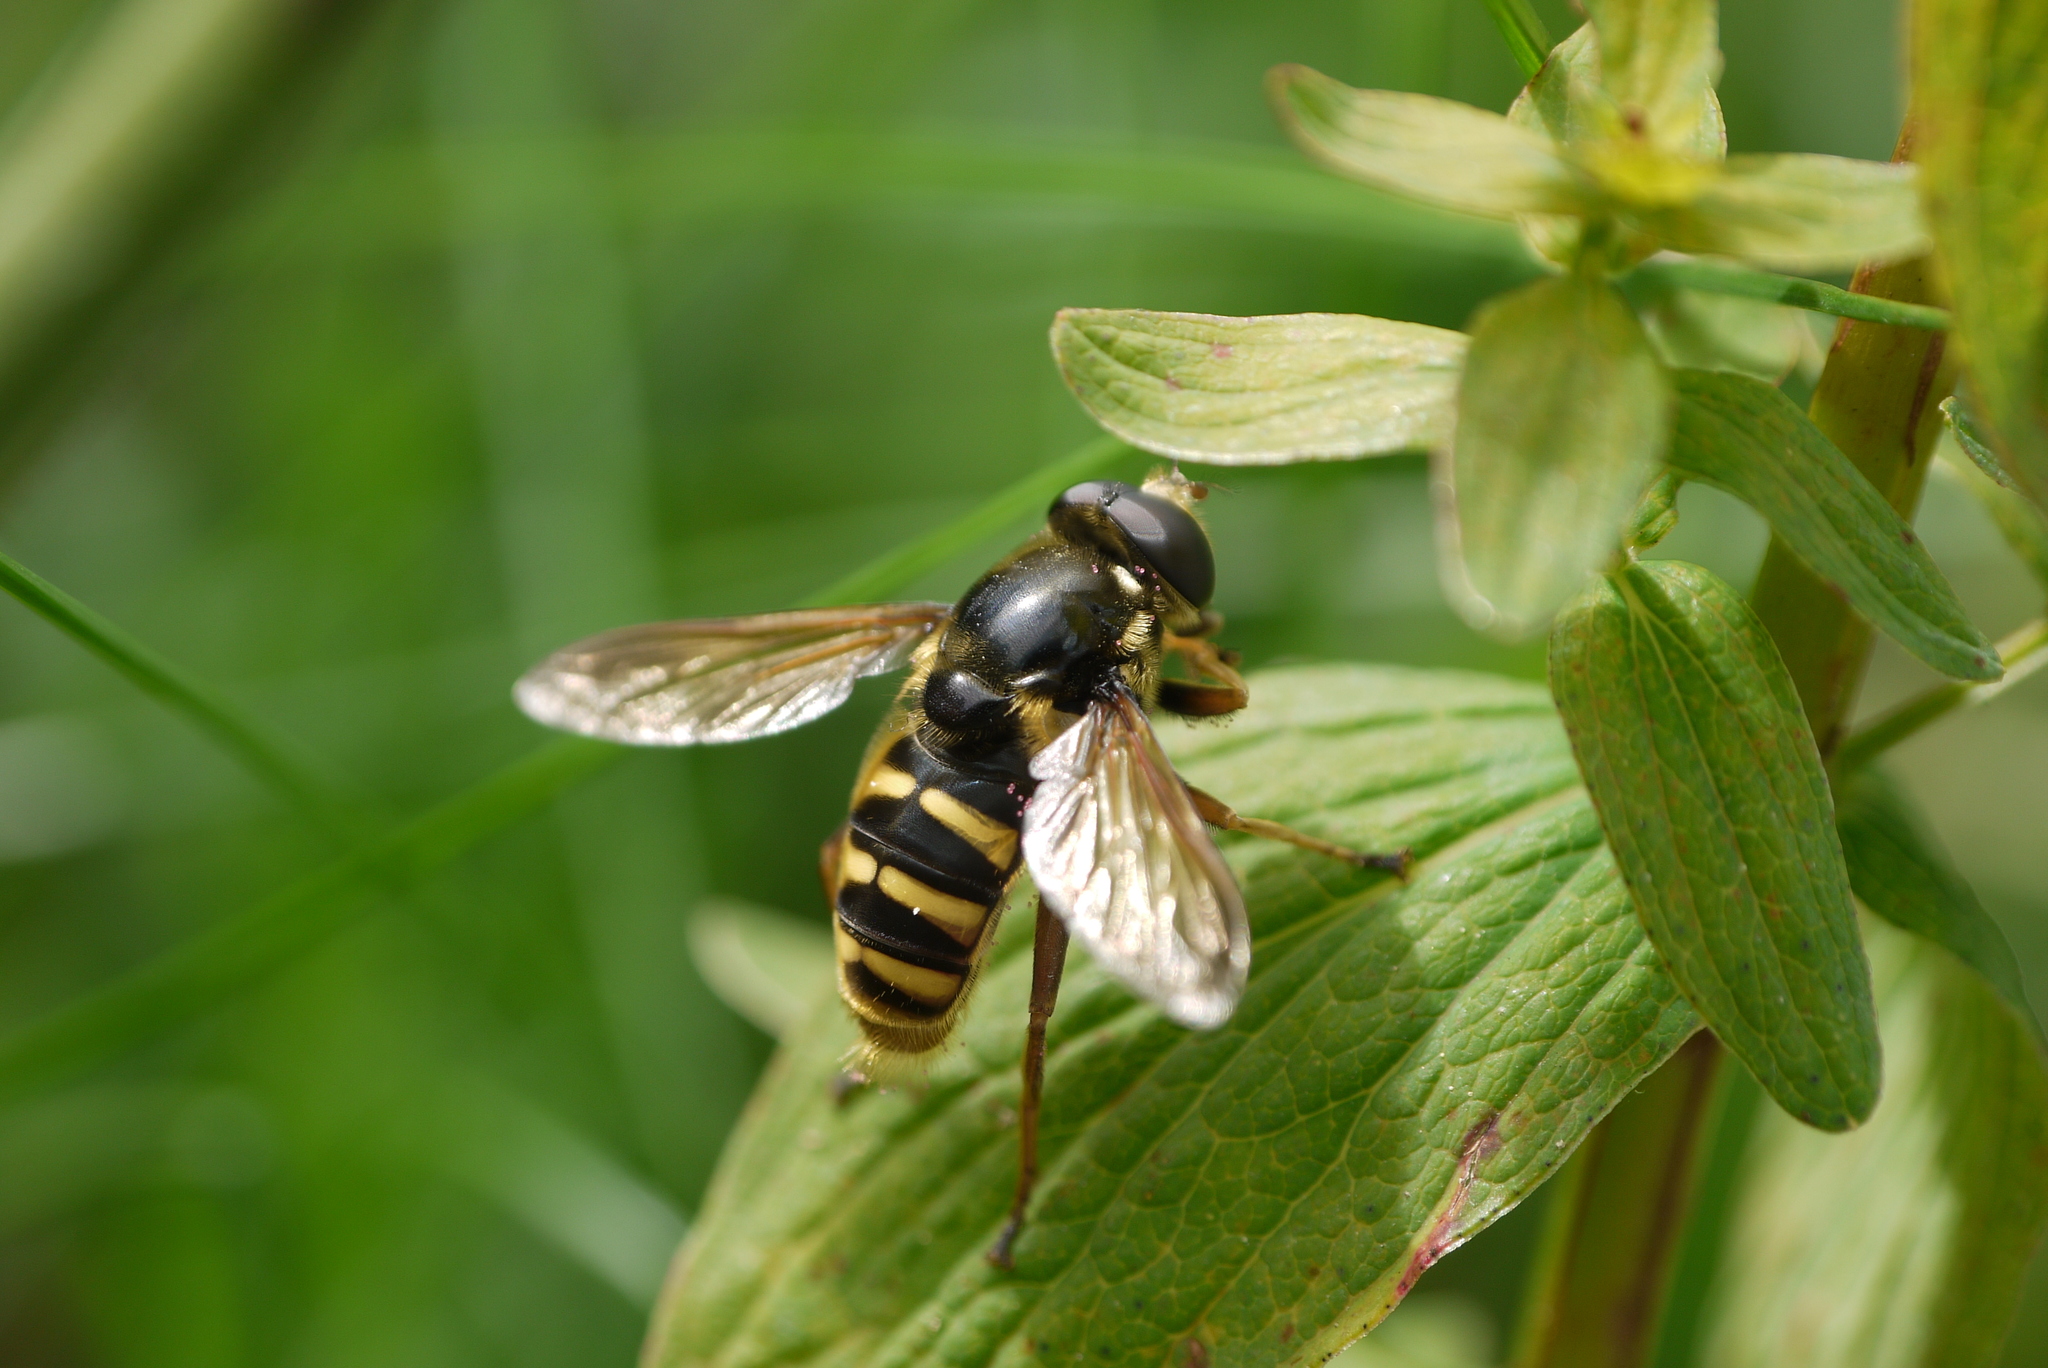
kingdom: Animalia
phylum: Arthropoda
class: Insecta
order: Diptera
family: Syrphidae
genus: Sericomyia
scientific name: Sericomyia silentis
